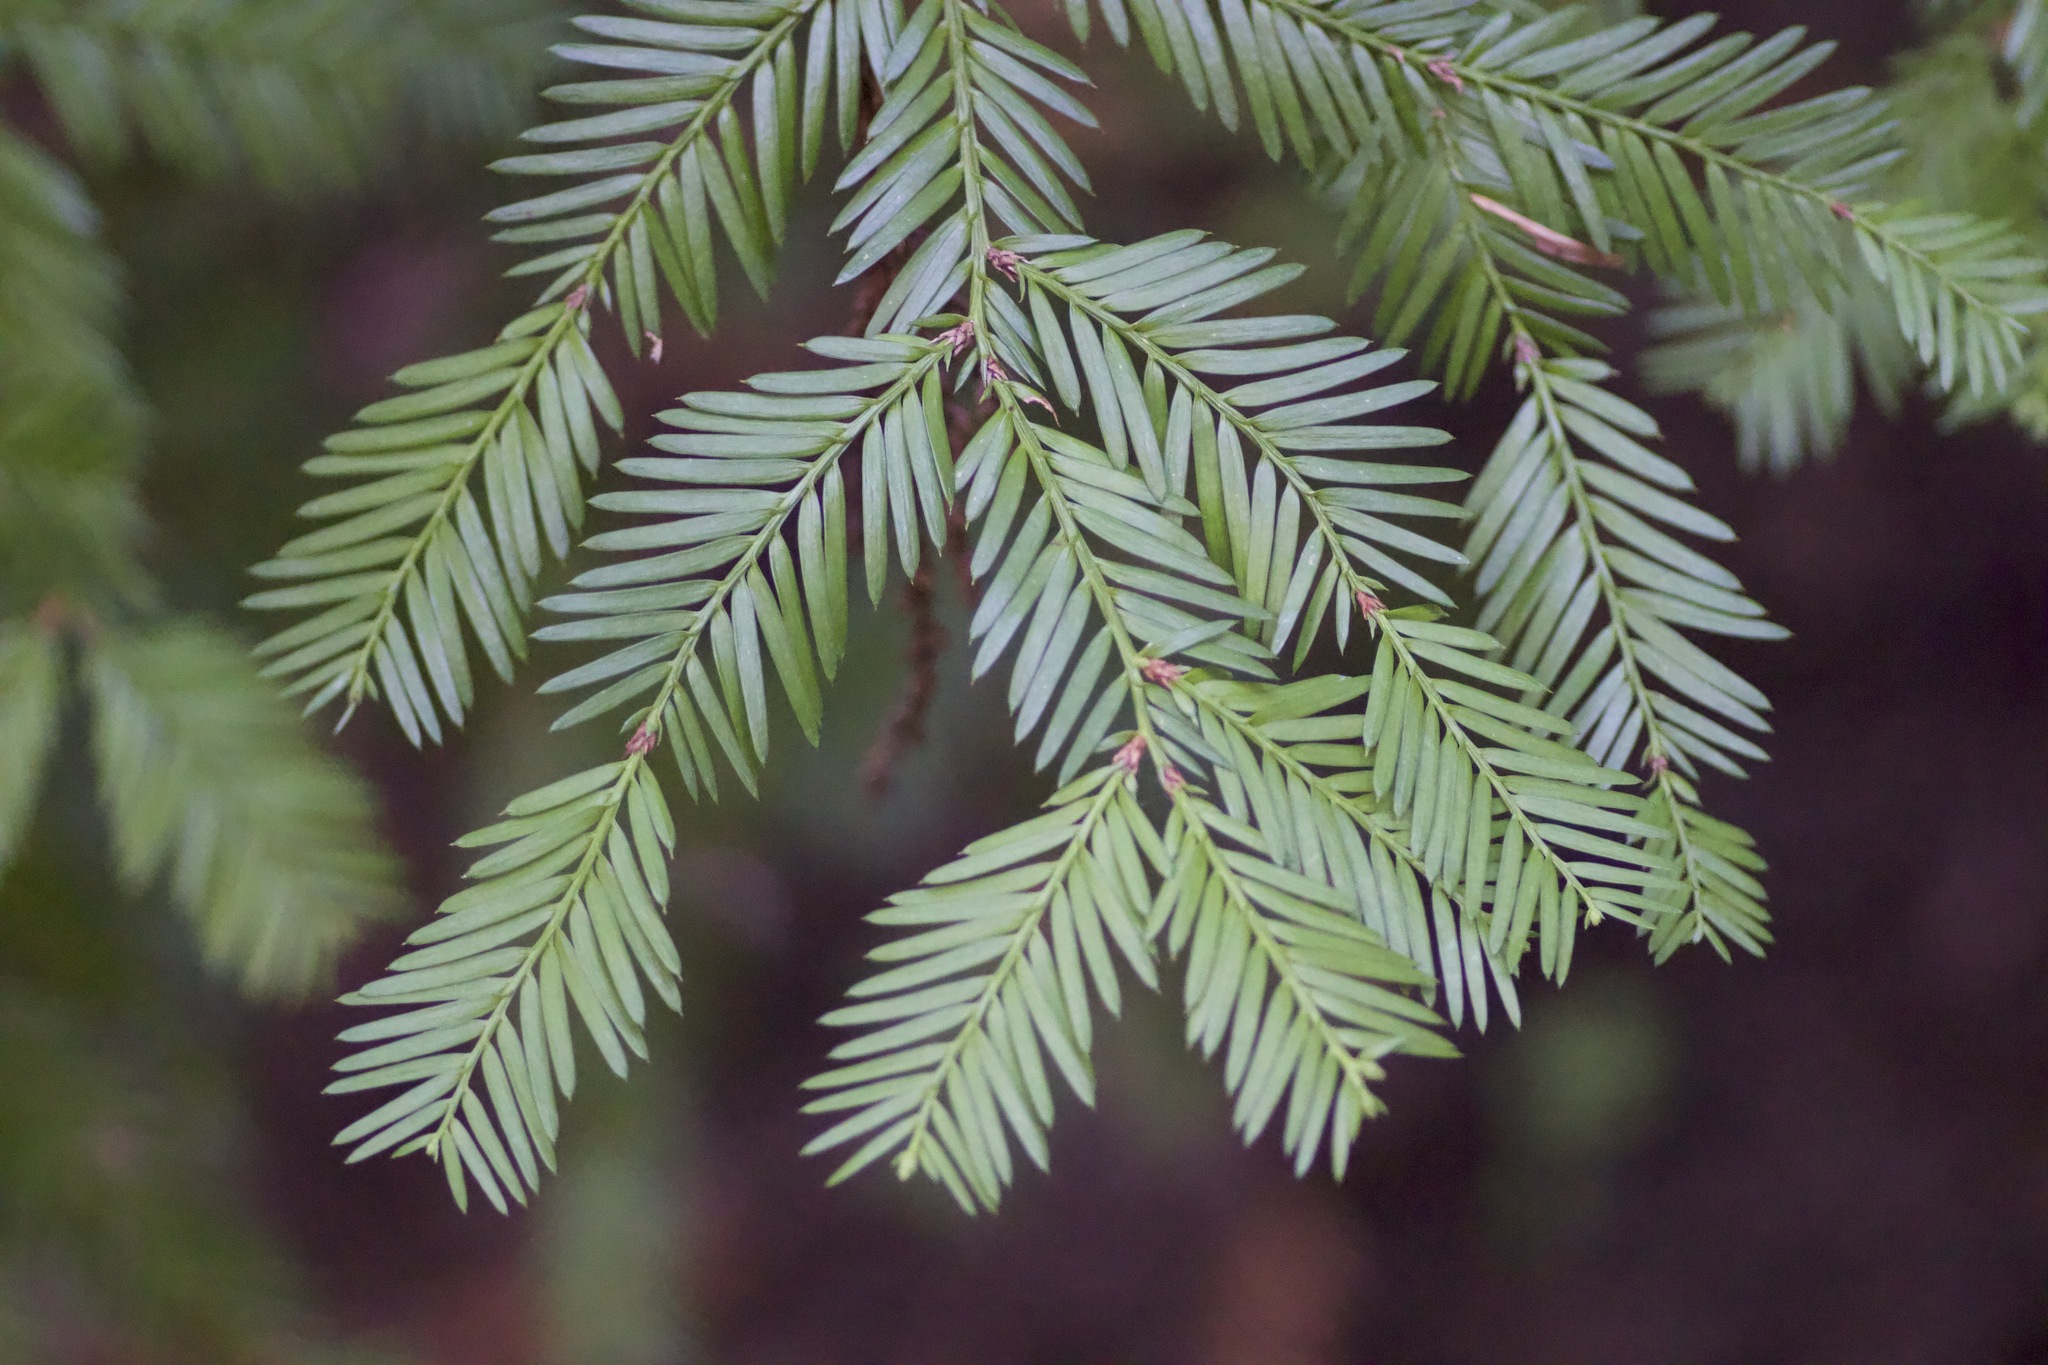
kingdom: Plantae
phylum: Tracheophyta
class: Pinopsida
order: Pinales
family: Cupressaceae
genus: Sequoia
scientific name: Sequoia sempervirens
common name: Coast redwood
